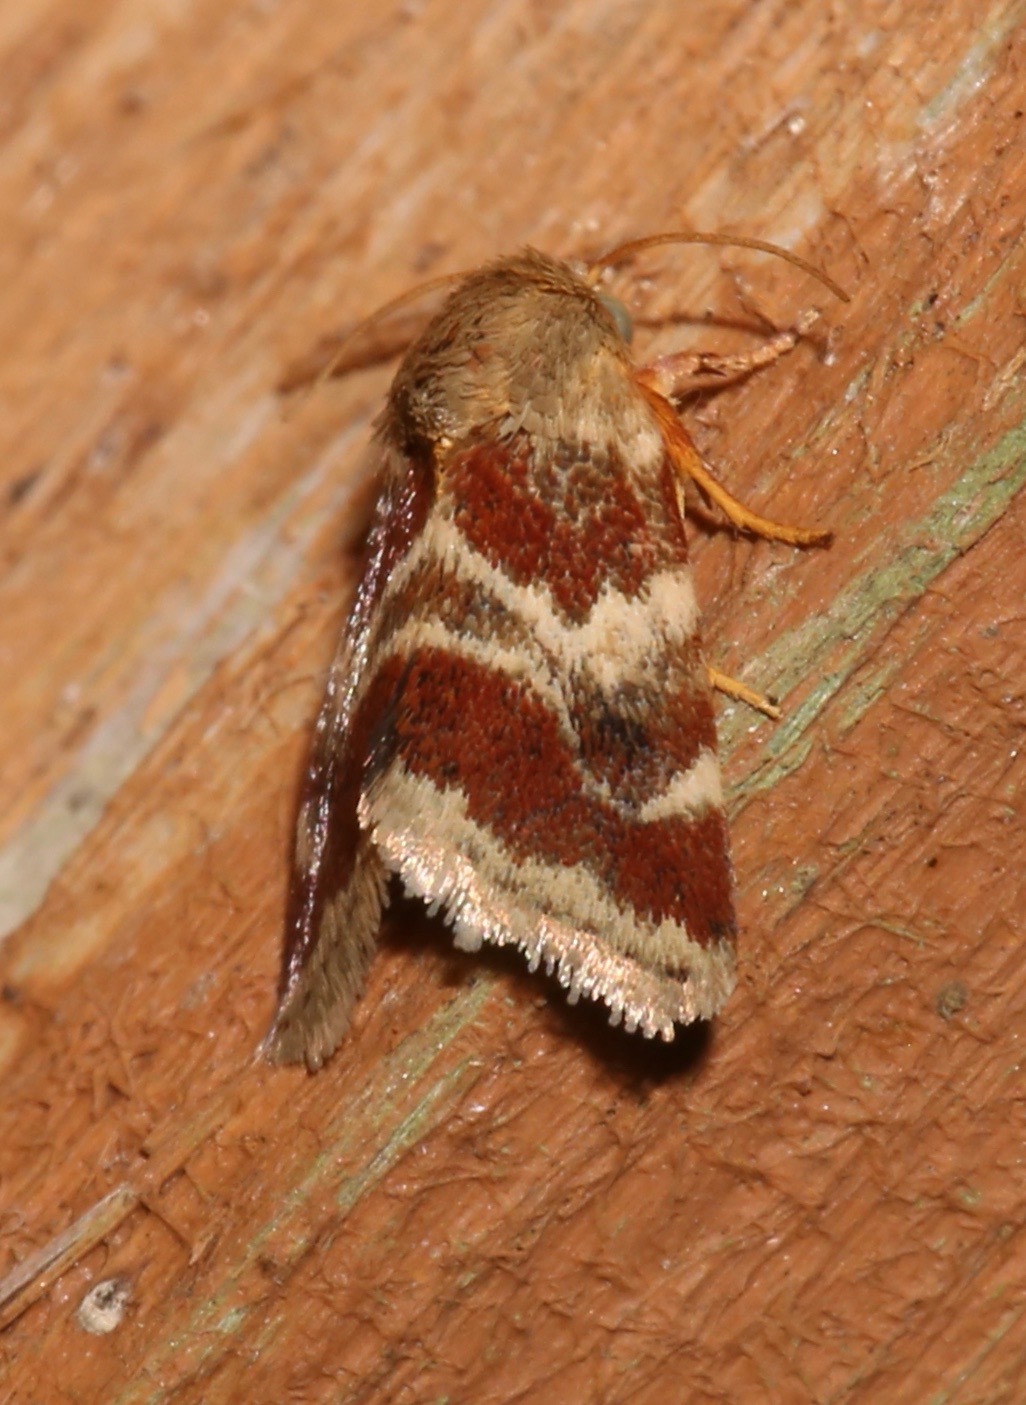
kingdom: Animalia
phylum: Arthropoda
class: Insecta
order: Lepidoptera
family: Noctuidae
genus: Schinia
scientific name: Schinia lynx
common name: Lynx flower moth
